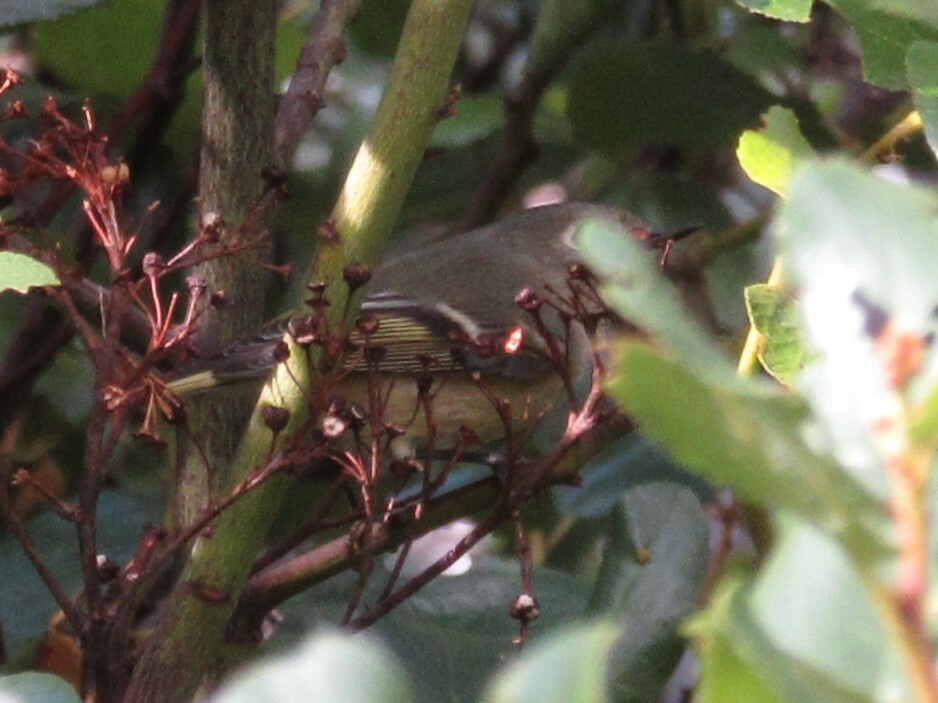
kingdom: Animalia
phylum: Chordata
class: Aves
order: Passeriformes
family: Regulidae
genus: Regulus
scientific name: Regulus calendula
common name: Ruby-crowned kinglet
